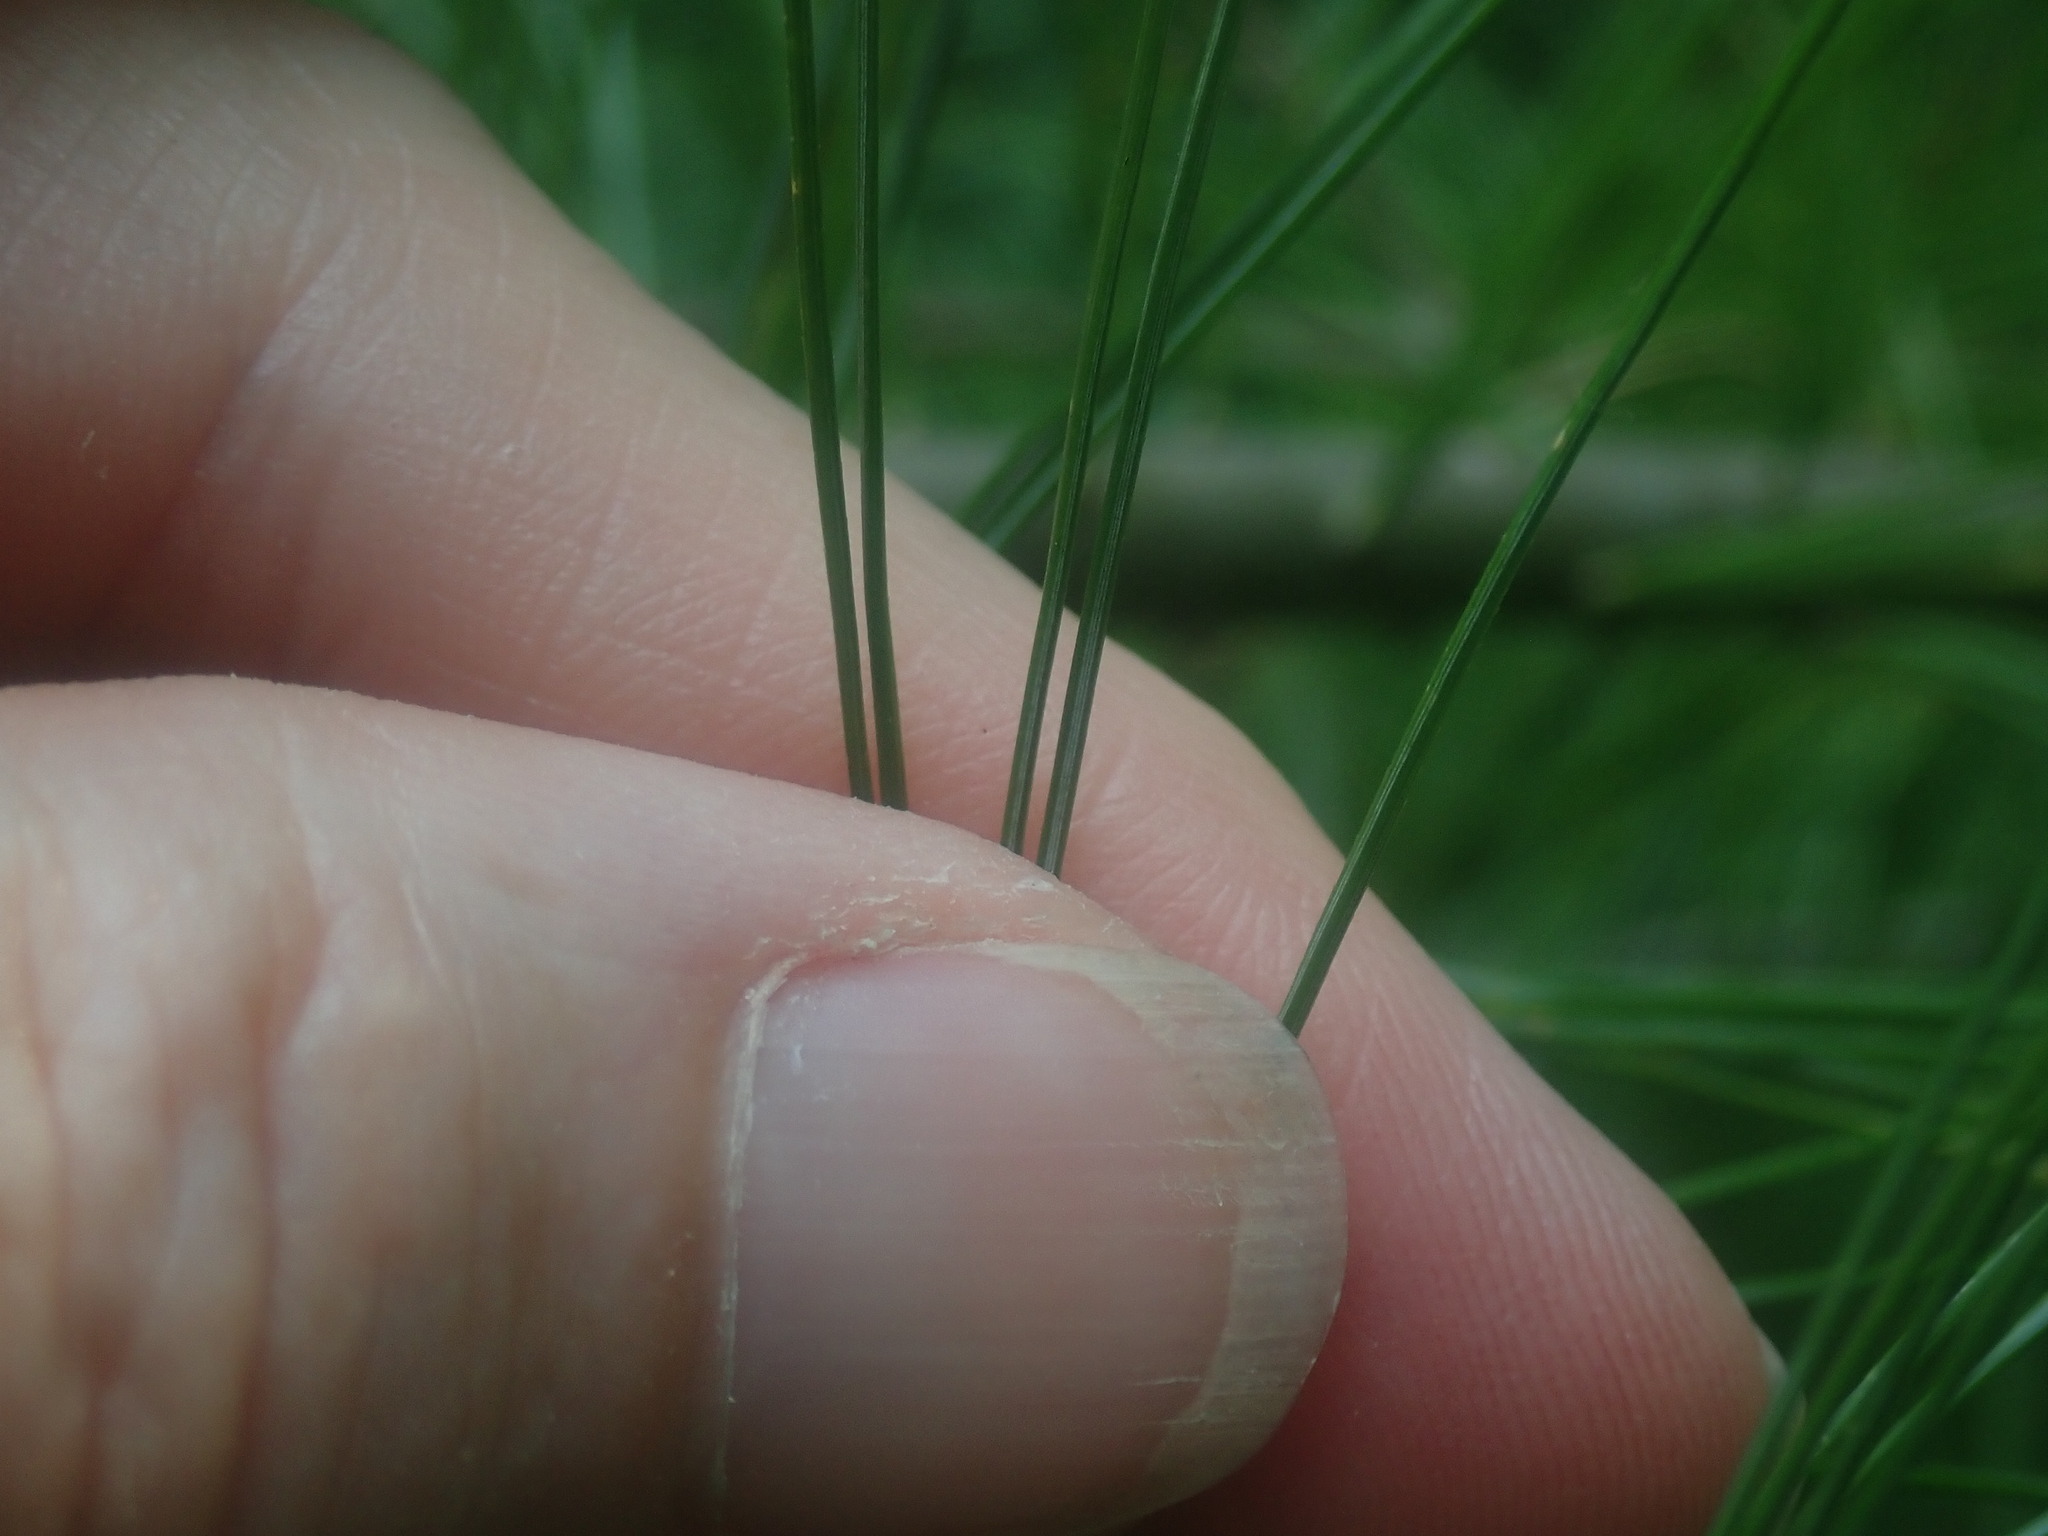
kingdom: Plantae
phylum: Tracheophyta
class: Pinopsida
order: Pinales
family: Pinaceae
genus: Pinus
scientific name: Pinus strobus
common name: Weymouth pine
